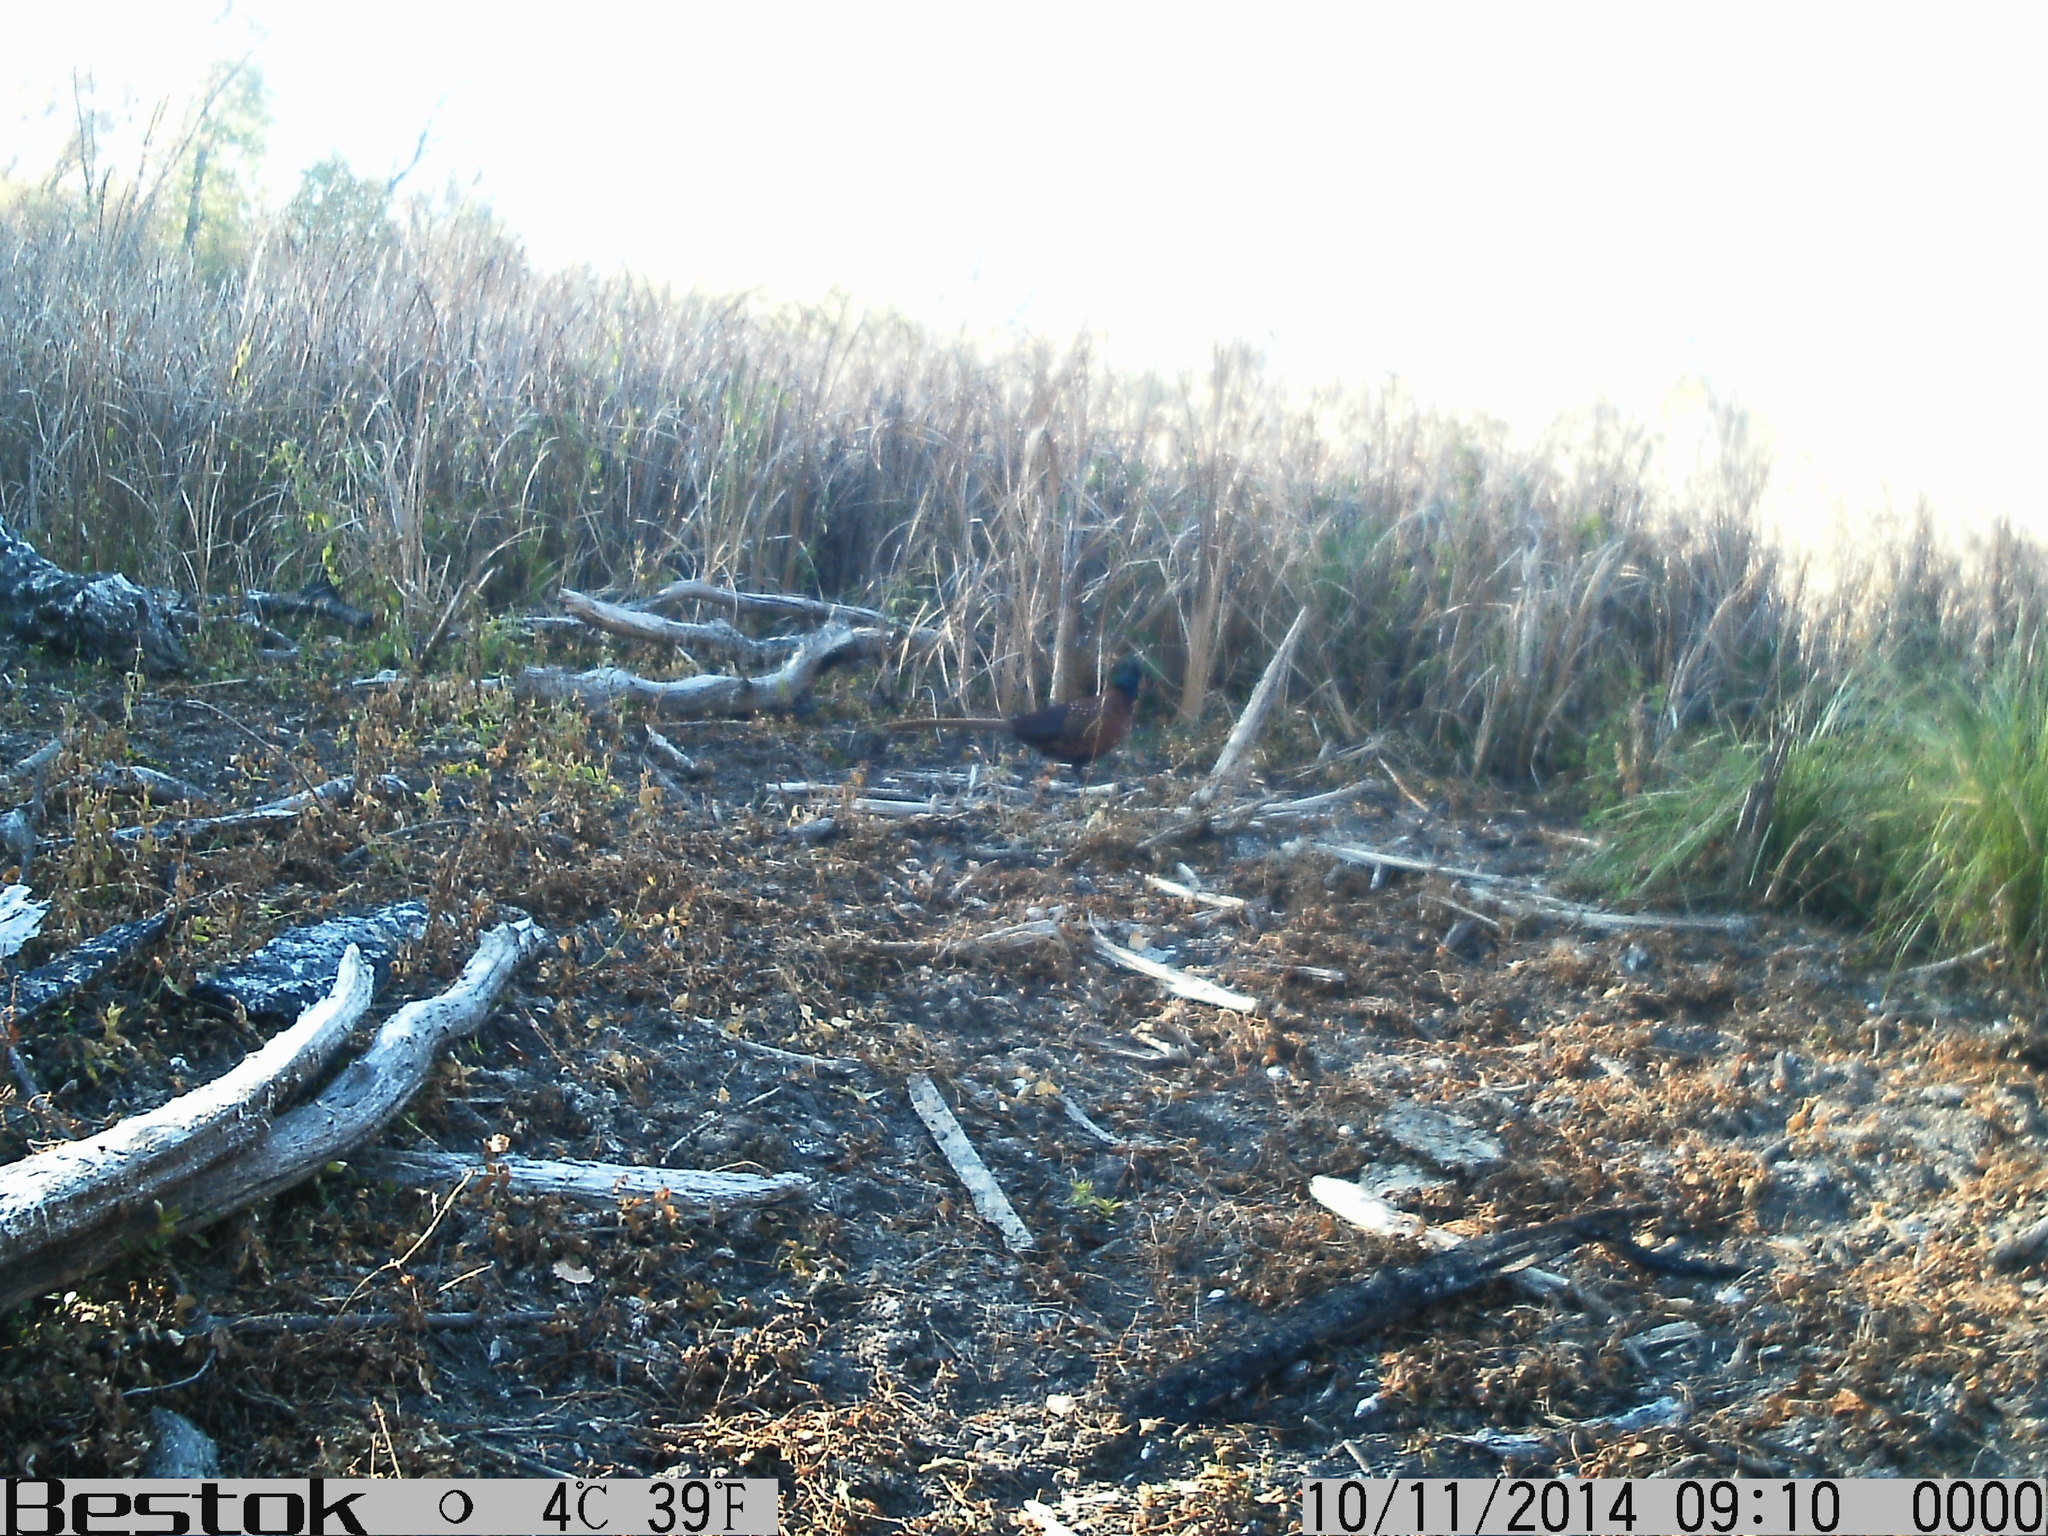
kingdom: Animalia
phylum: Chordata
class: Aves
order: Galliformes
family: Phasianidae
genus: Phasianus
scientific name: Phasianus colchicus
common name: Common pheasant
